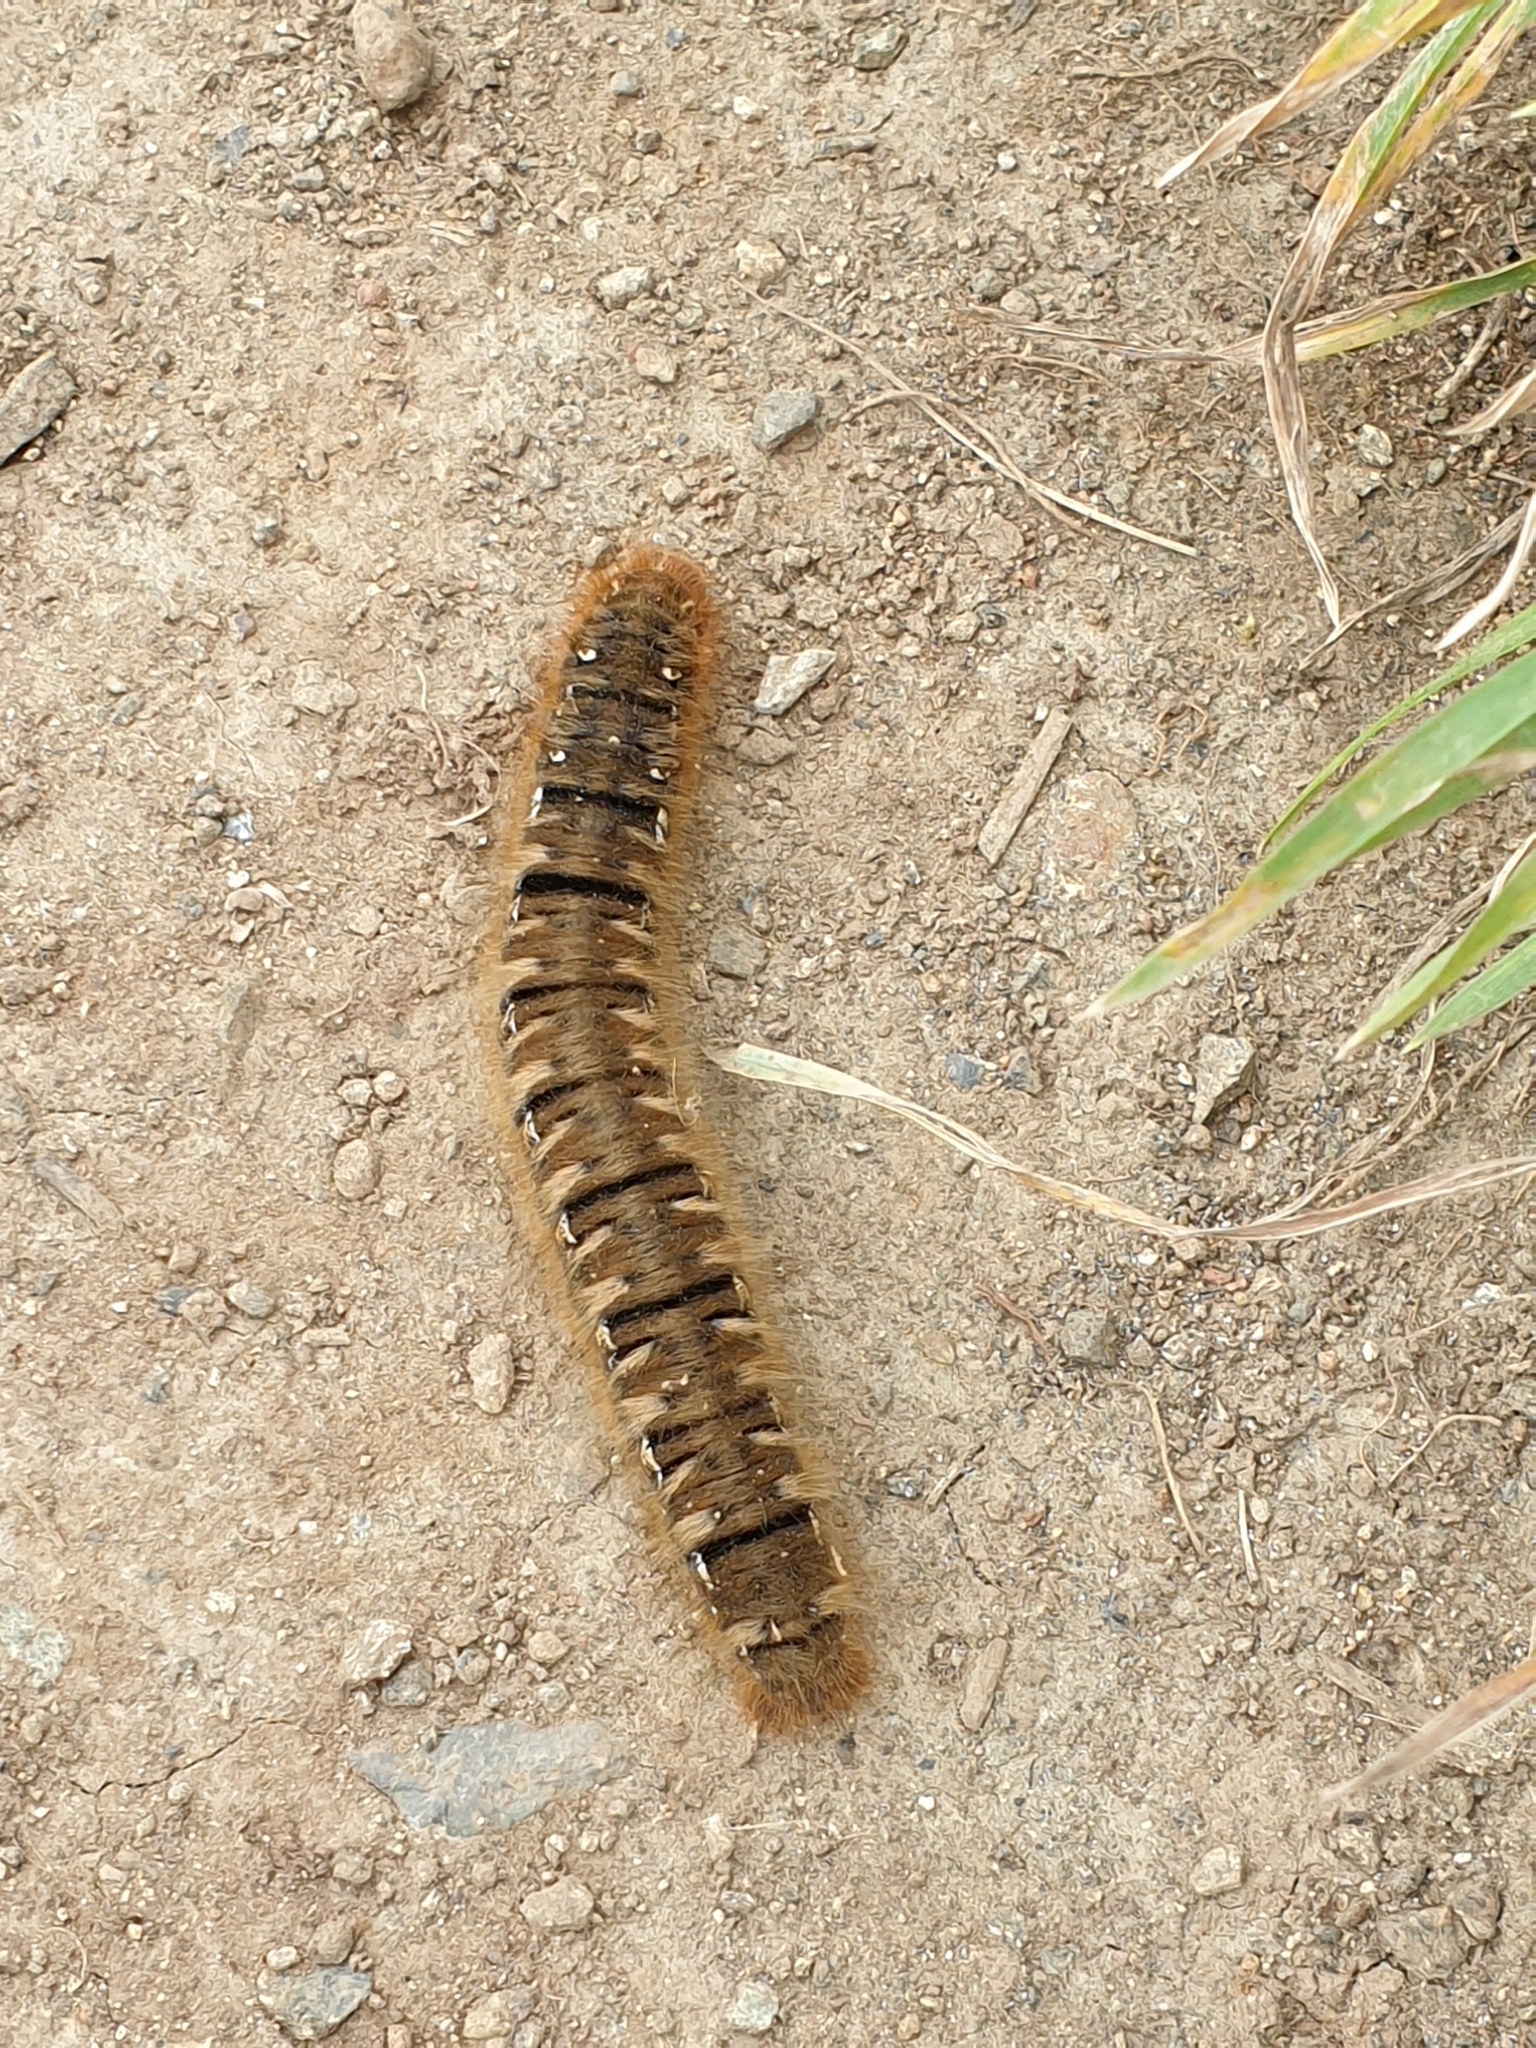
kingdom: Animalia
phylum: Arthropoda
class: Insecta
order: Lepidoptera
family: Lasiocampidae
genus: Lasiocampa
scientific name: Lasiocampa quercus
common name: Oak eggar
